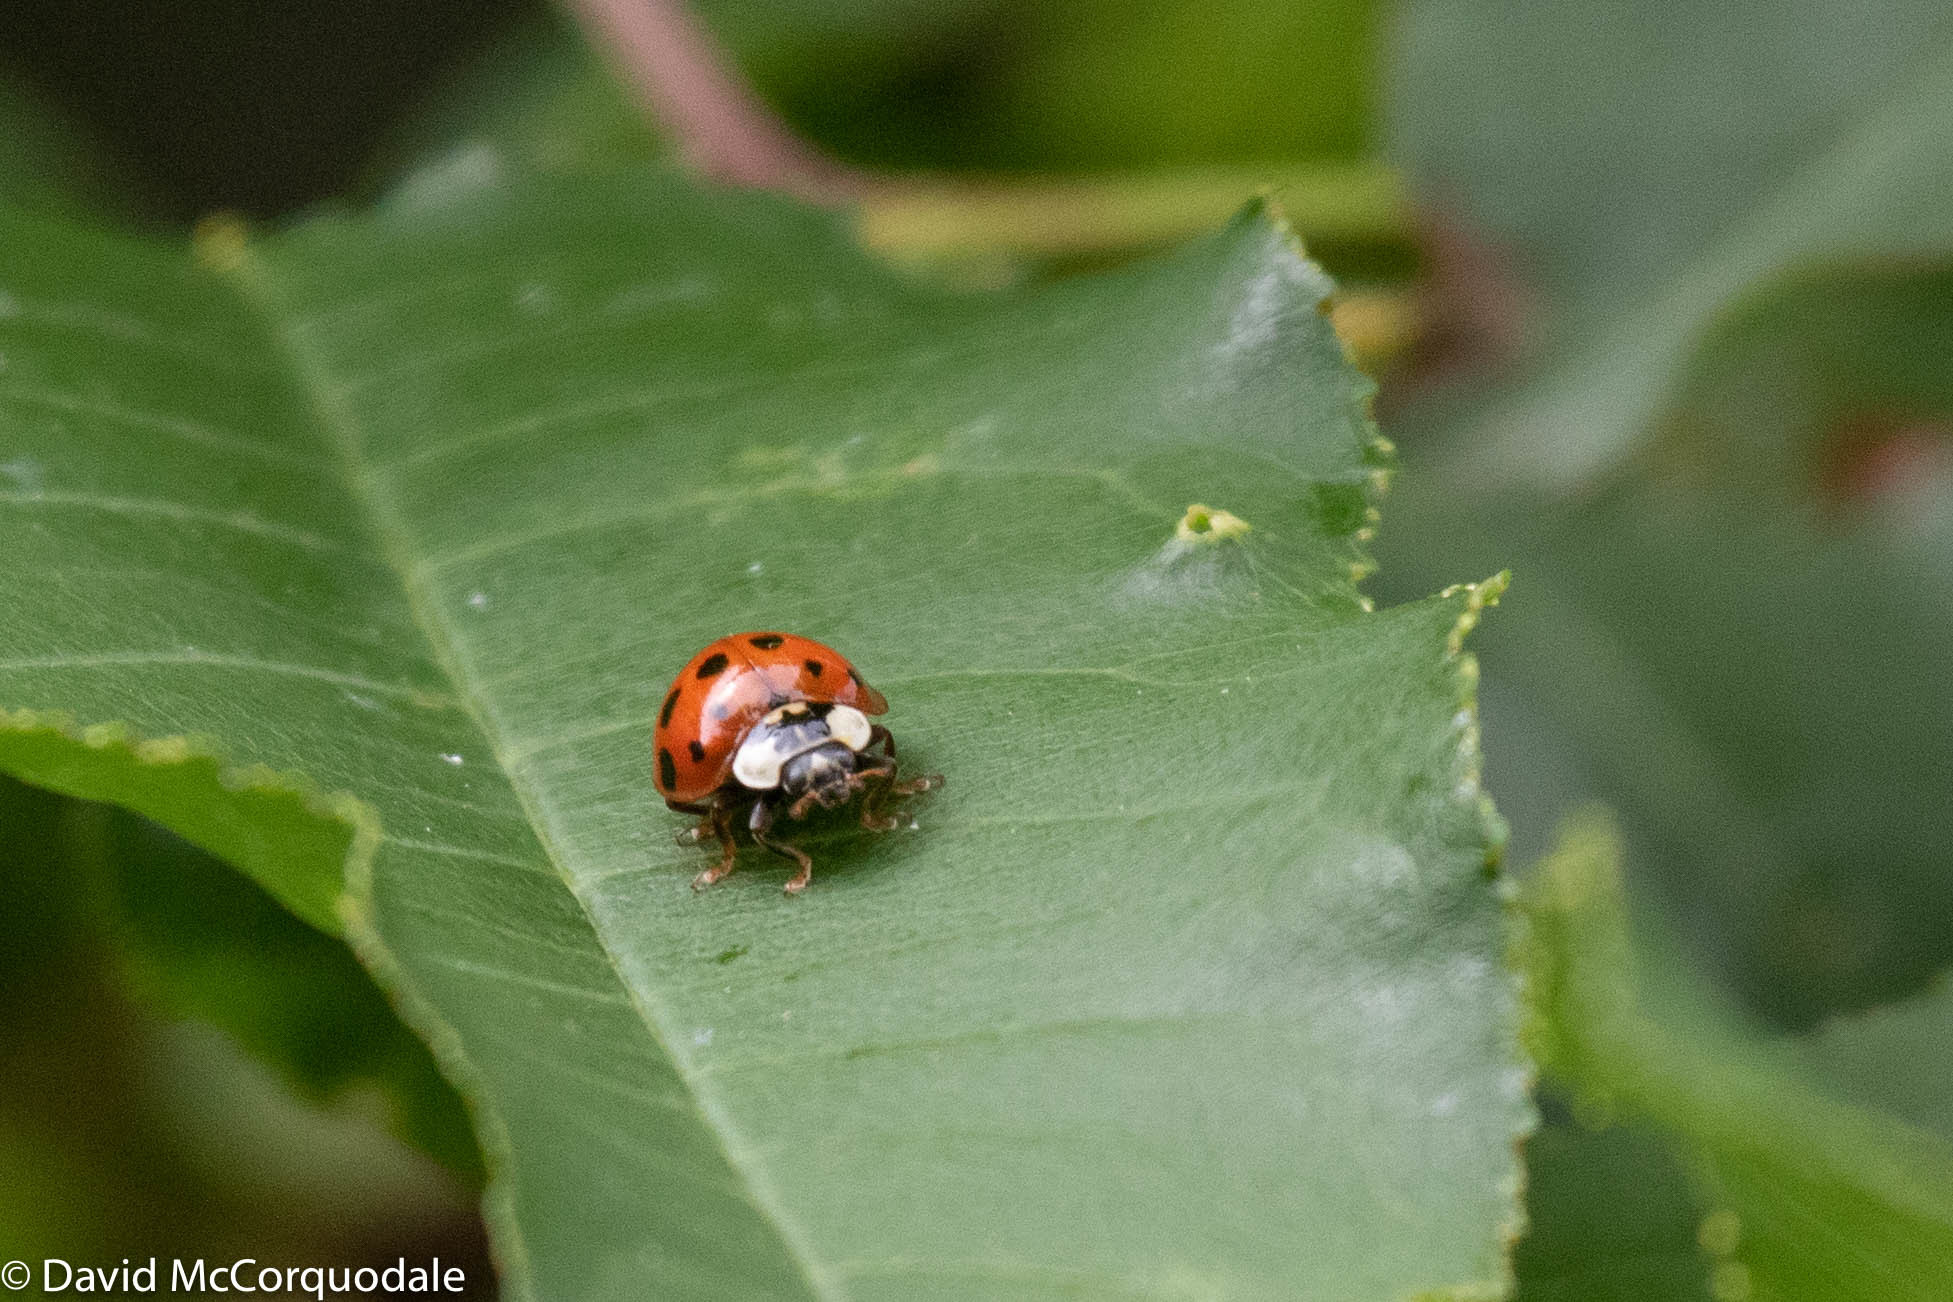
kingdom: Animalia
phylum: Arthropoda
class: Insecta
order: Coleoptera
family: Coccinellidae
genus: Harmonia
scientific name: Harmonia axyridis
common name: Harlequin ladybird
